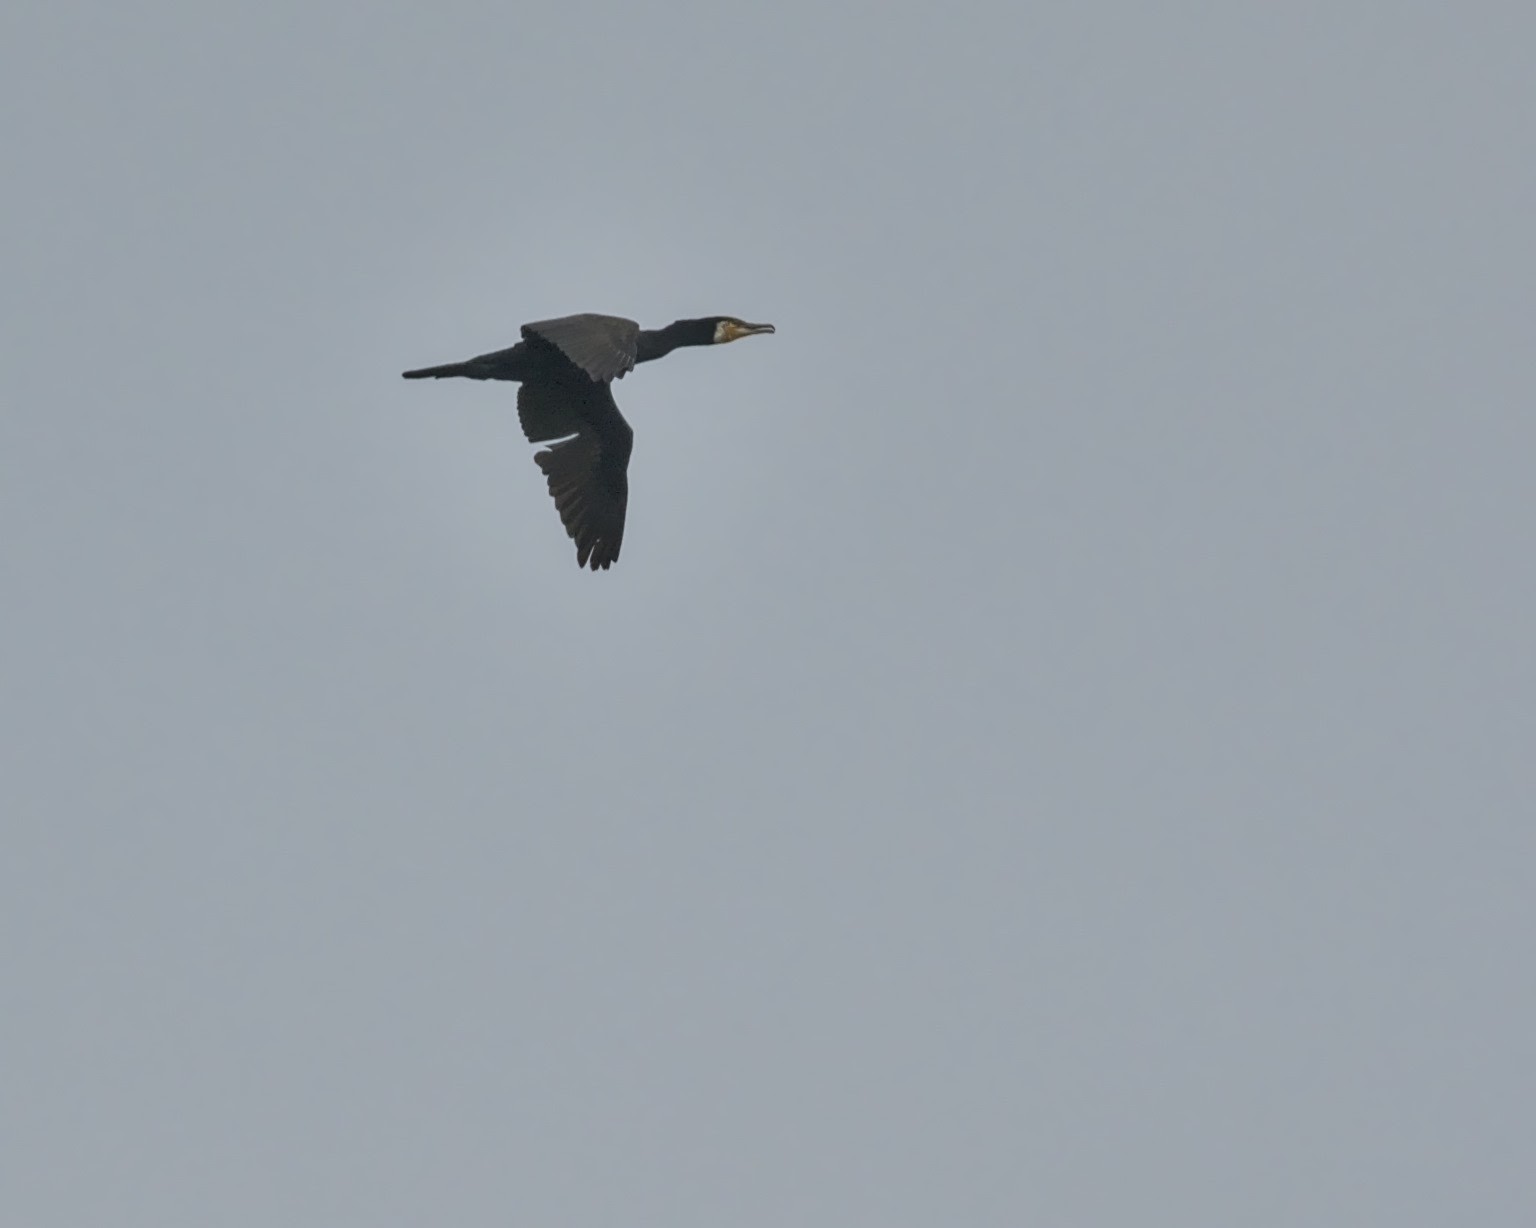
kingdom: Animalia
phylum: Chordata
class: Aves
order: Suliformes
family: Phalacrocoracidae
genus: Phalacrocorax
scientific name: Phalacrocorax carbo
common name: Great cormorant
